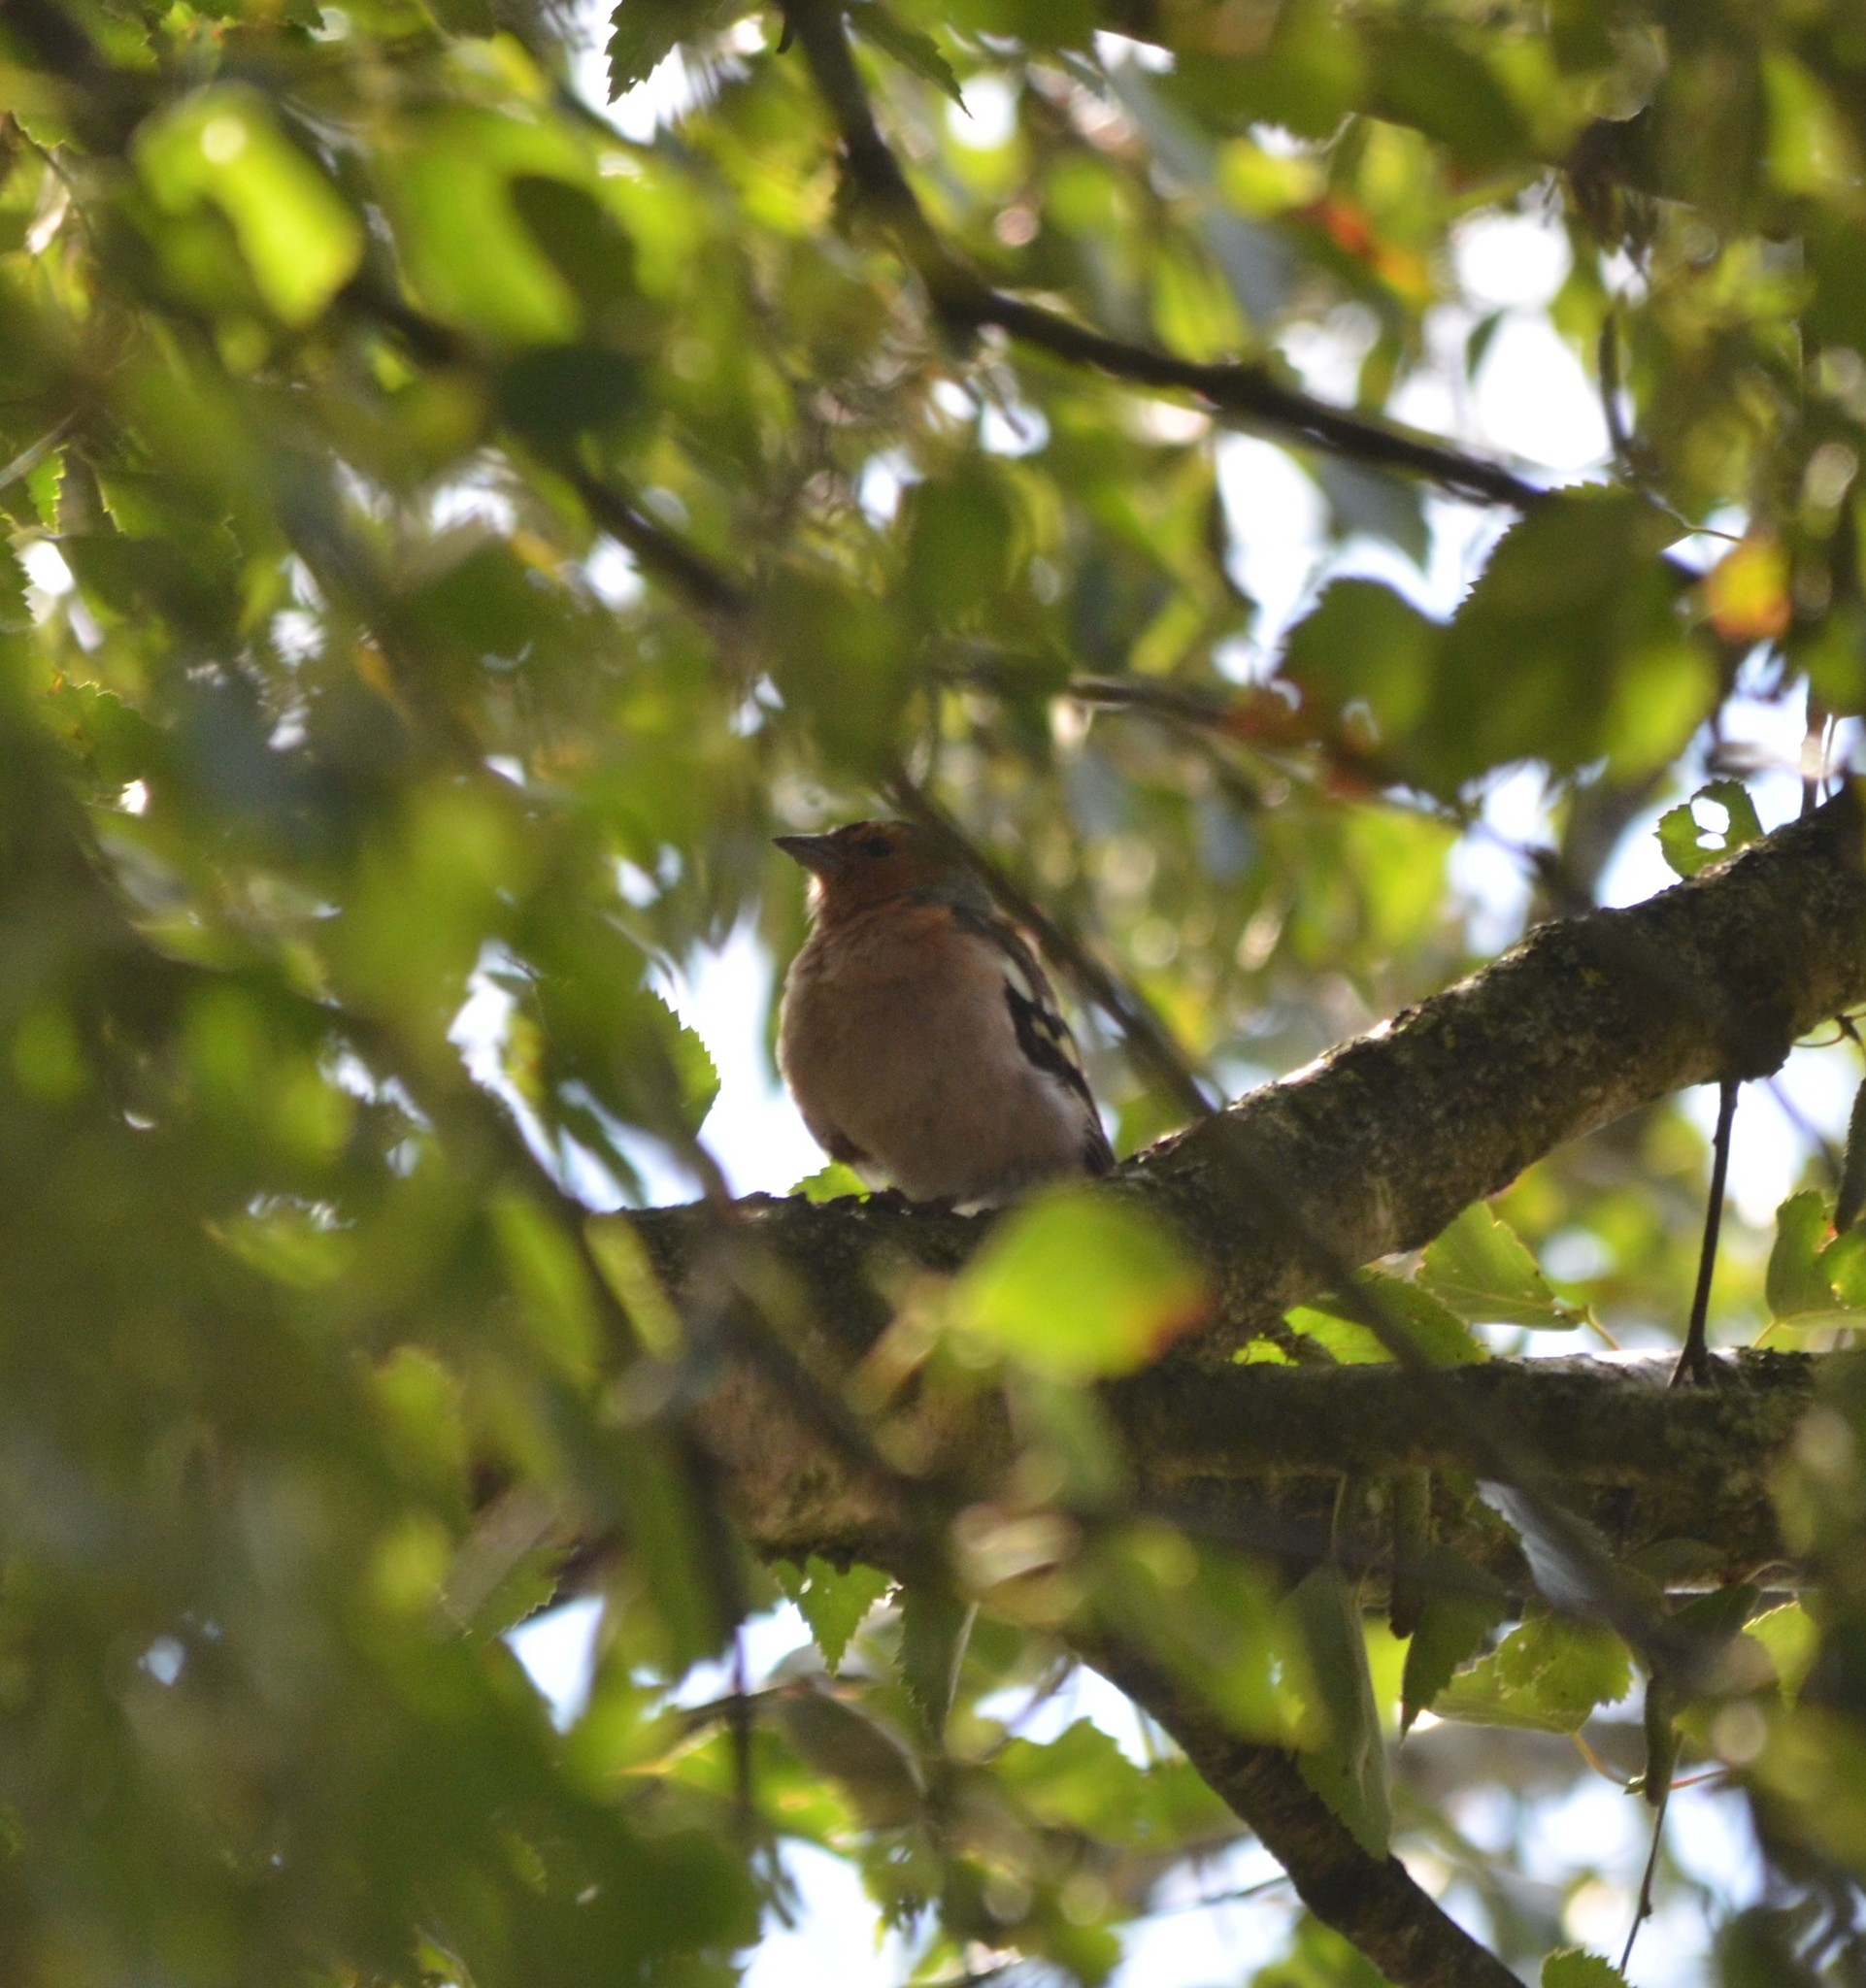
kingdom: Animalia
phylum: Chordata
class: Aves
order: Passeriformes
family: Fringillidae
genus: Fringilla
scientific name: Fringilla coelebs
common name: Common chaffinch
